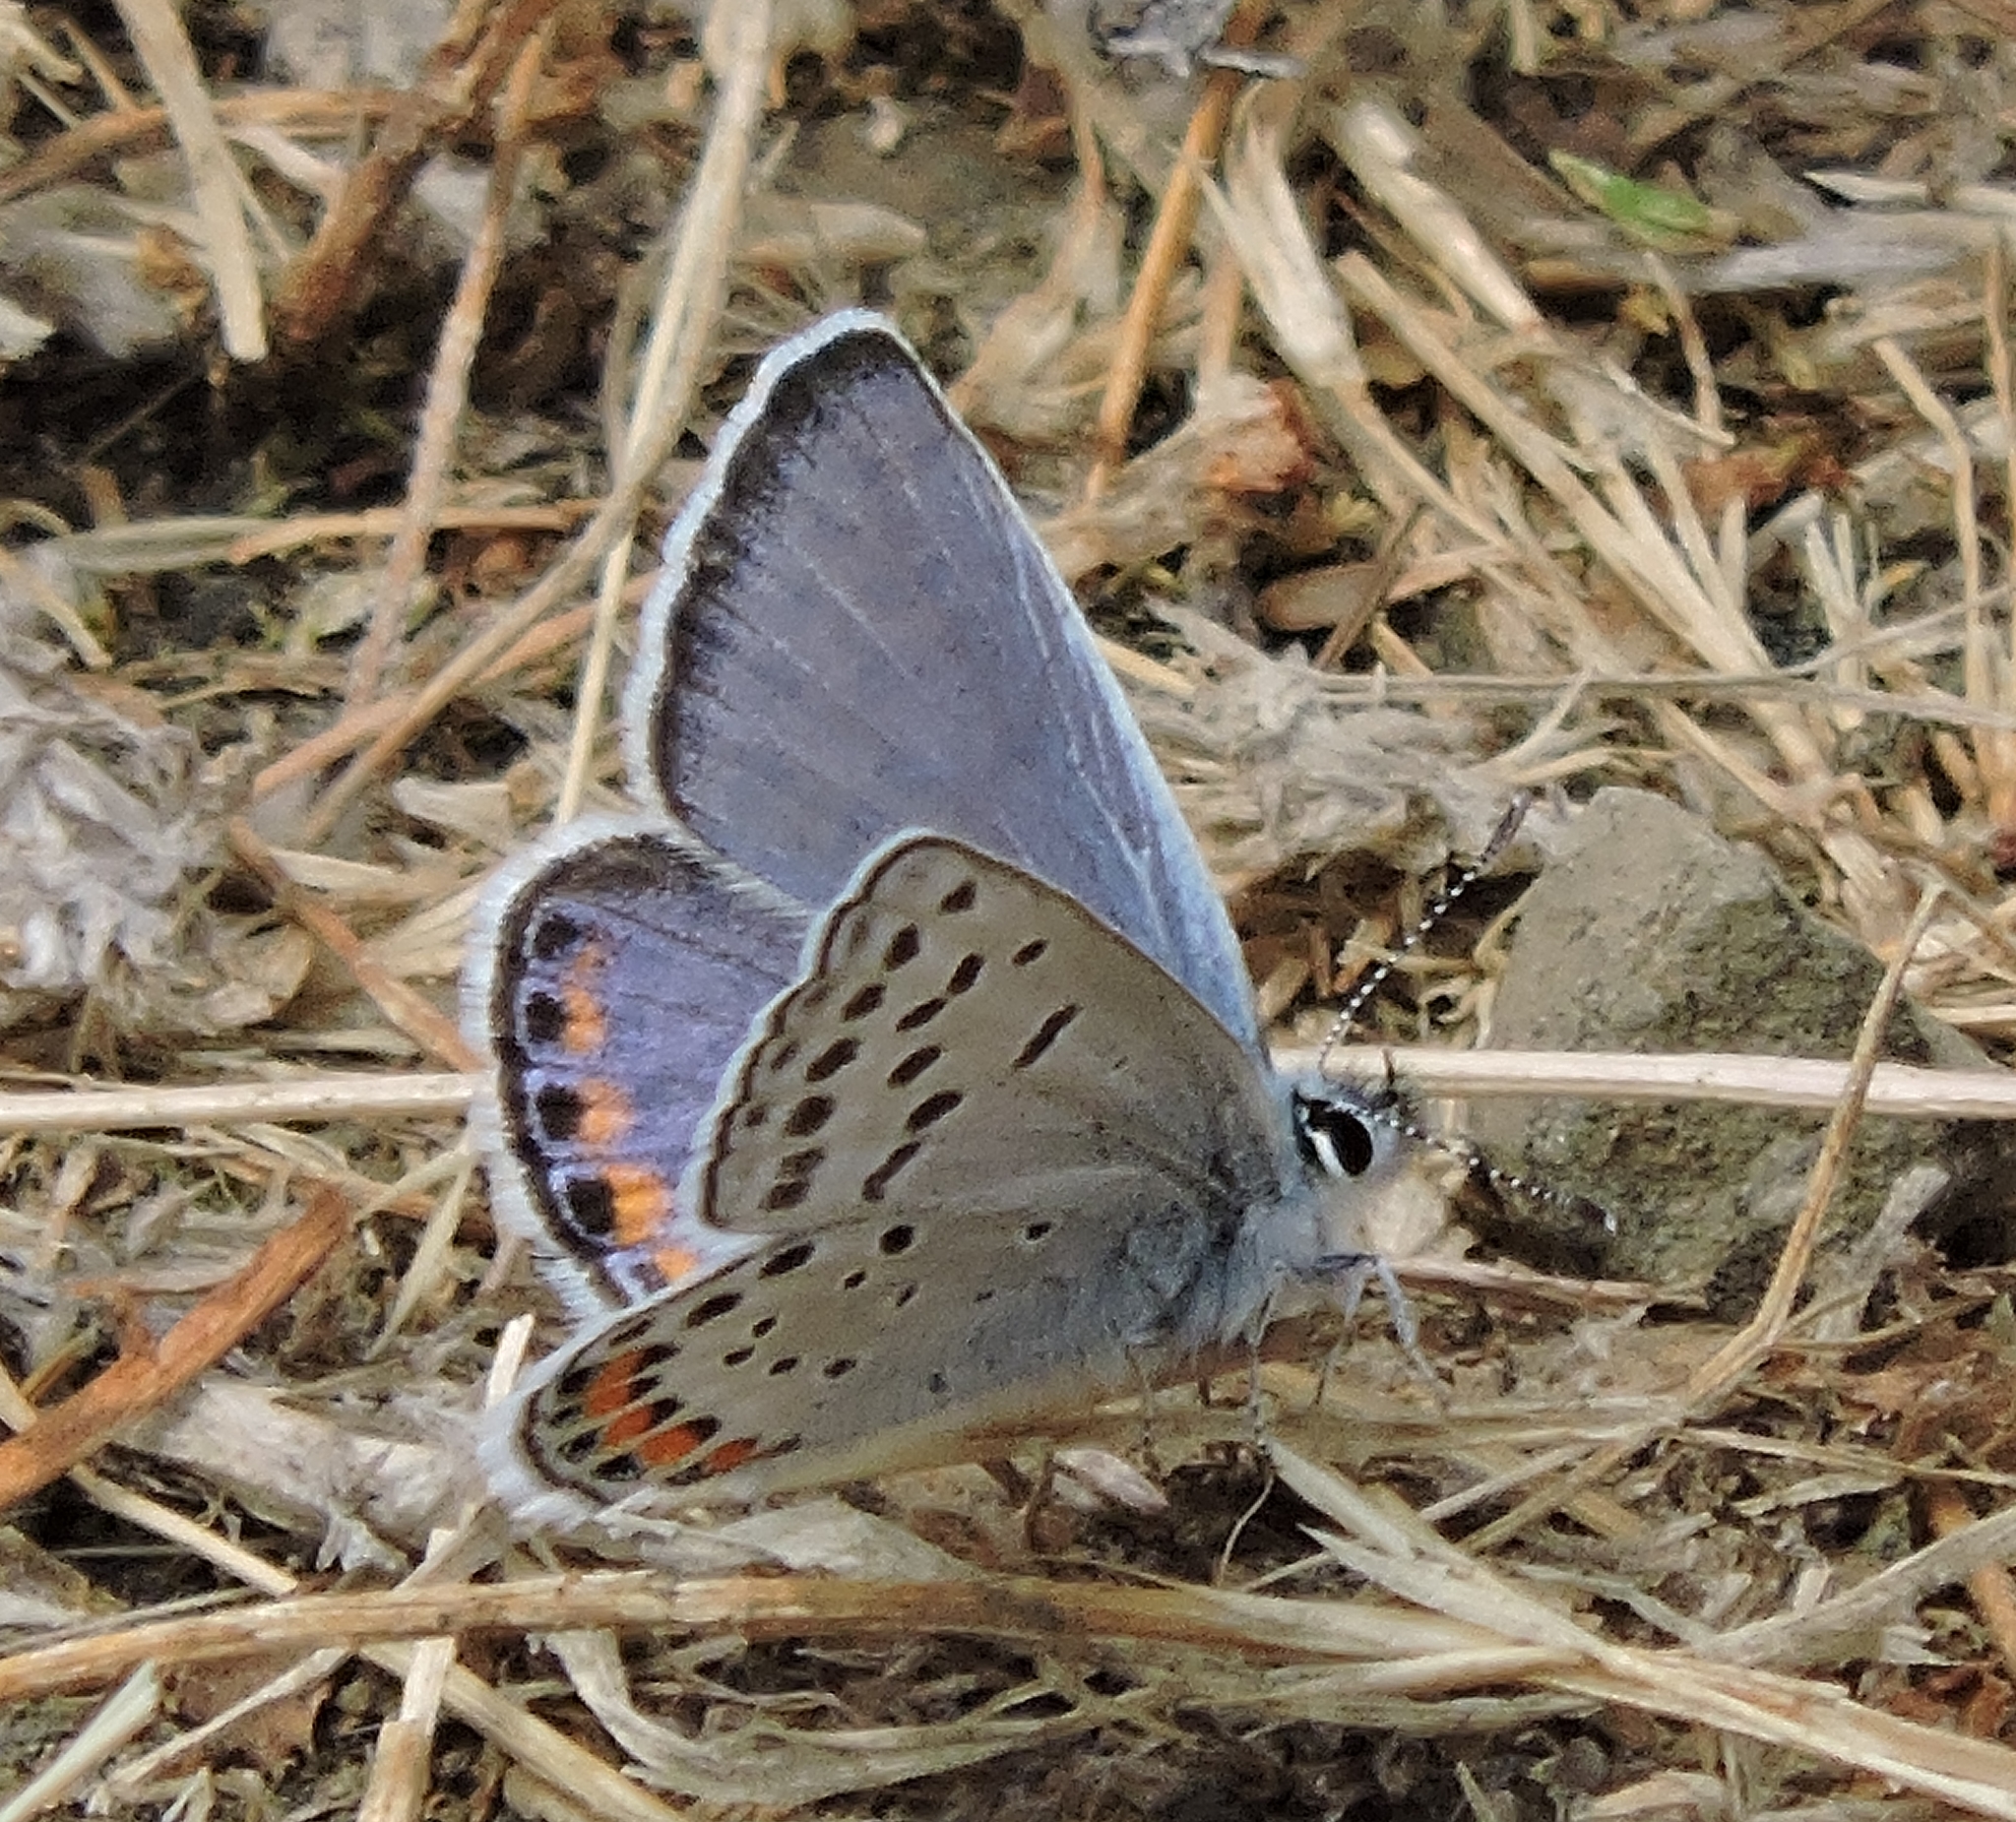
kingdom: Animalia
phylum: Arthropoda
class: Insecta
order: Lepidoptera
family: Lycaenidae
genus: Icaricia
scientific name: Icaricia acmon
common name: Acmon blue
